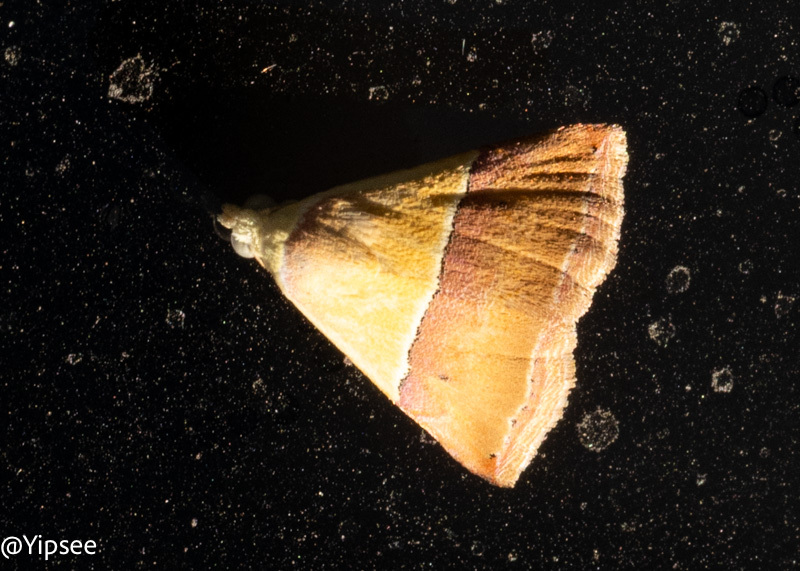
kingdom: Animalia
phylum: Arthropoda
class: Insecta
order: Lepidoptera
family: Noctuidae
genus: Eublemma
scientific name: Eublemma accedens
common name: Moth
